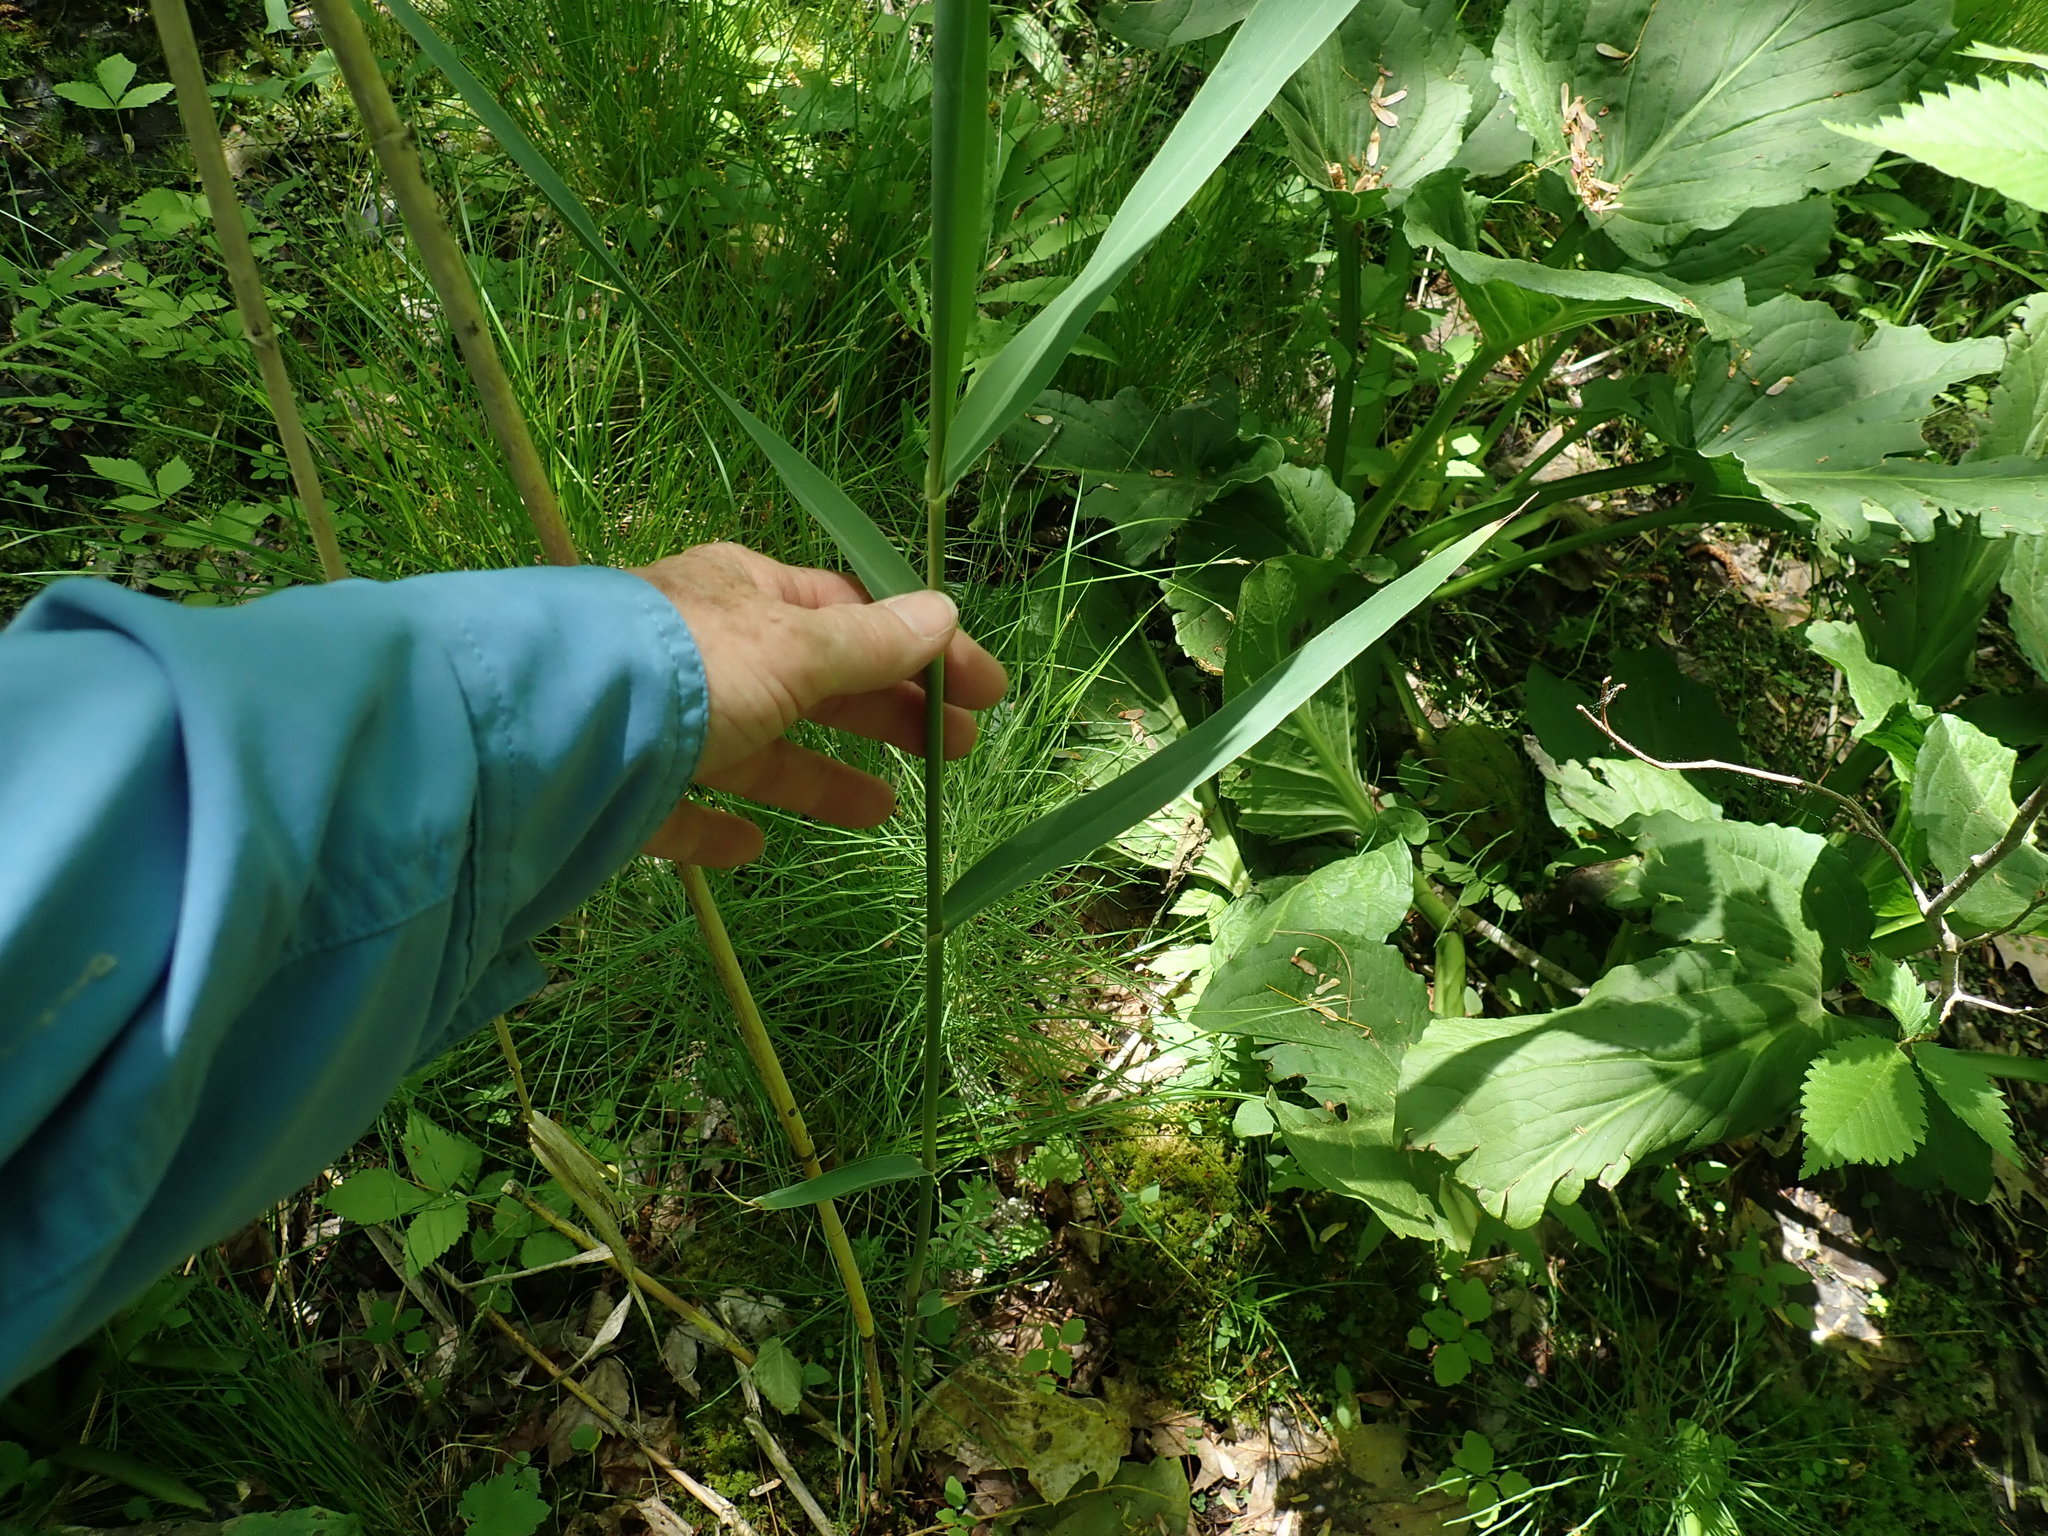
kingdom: Plantae
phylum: Tracheophyta
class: Liliopsida
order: Poales
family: Poaceae
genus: Phragmites
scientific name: Phragmites australis
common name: Common reed
